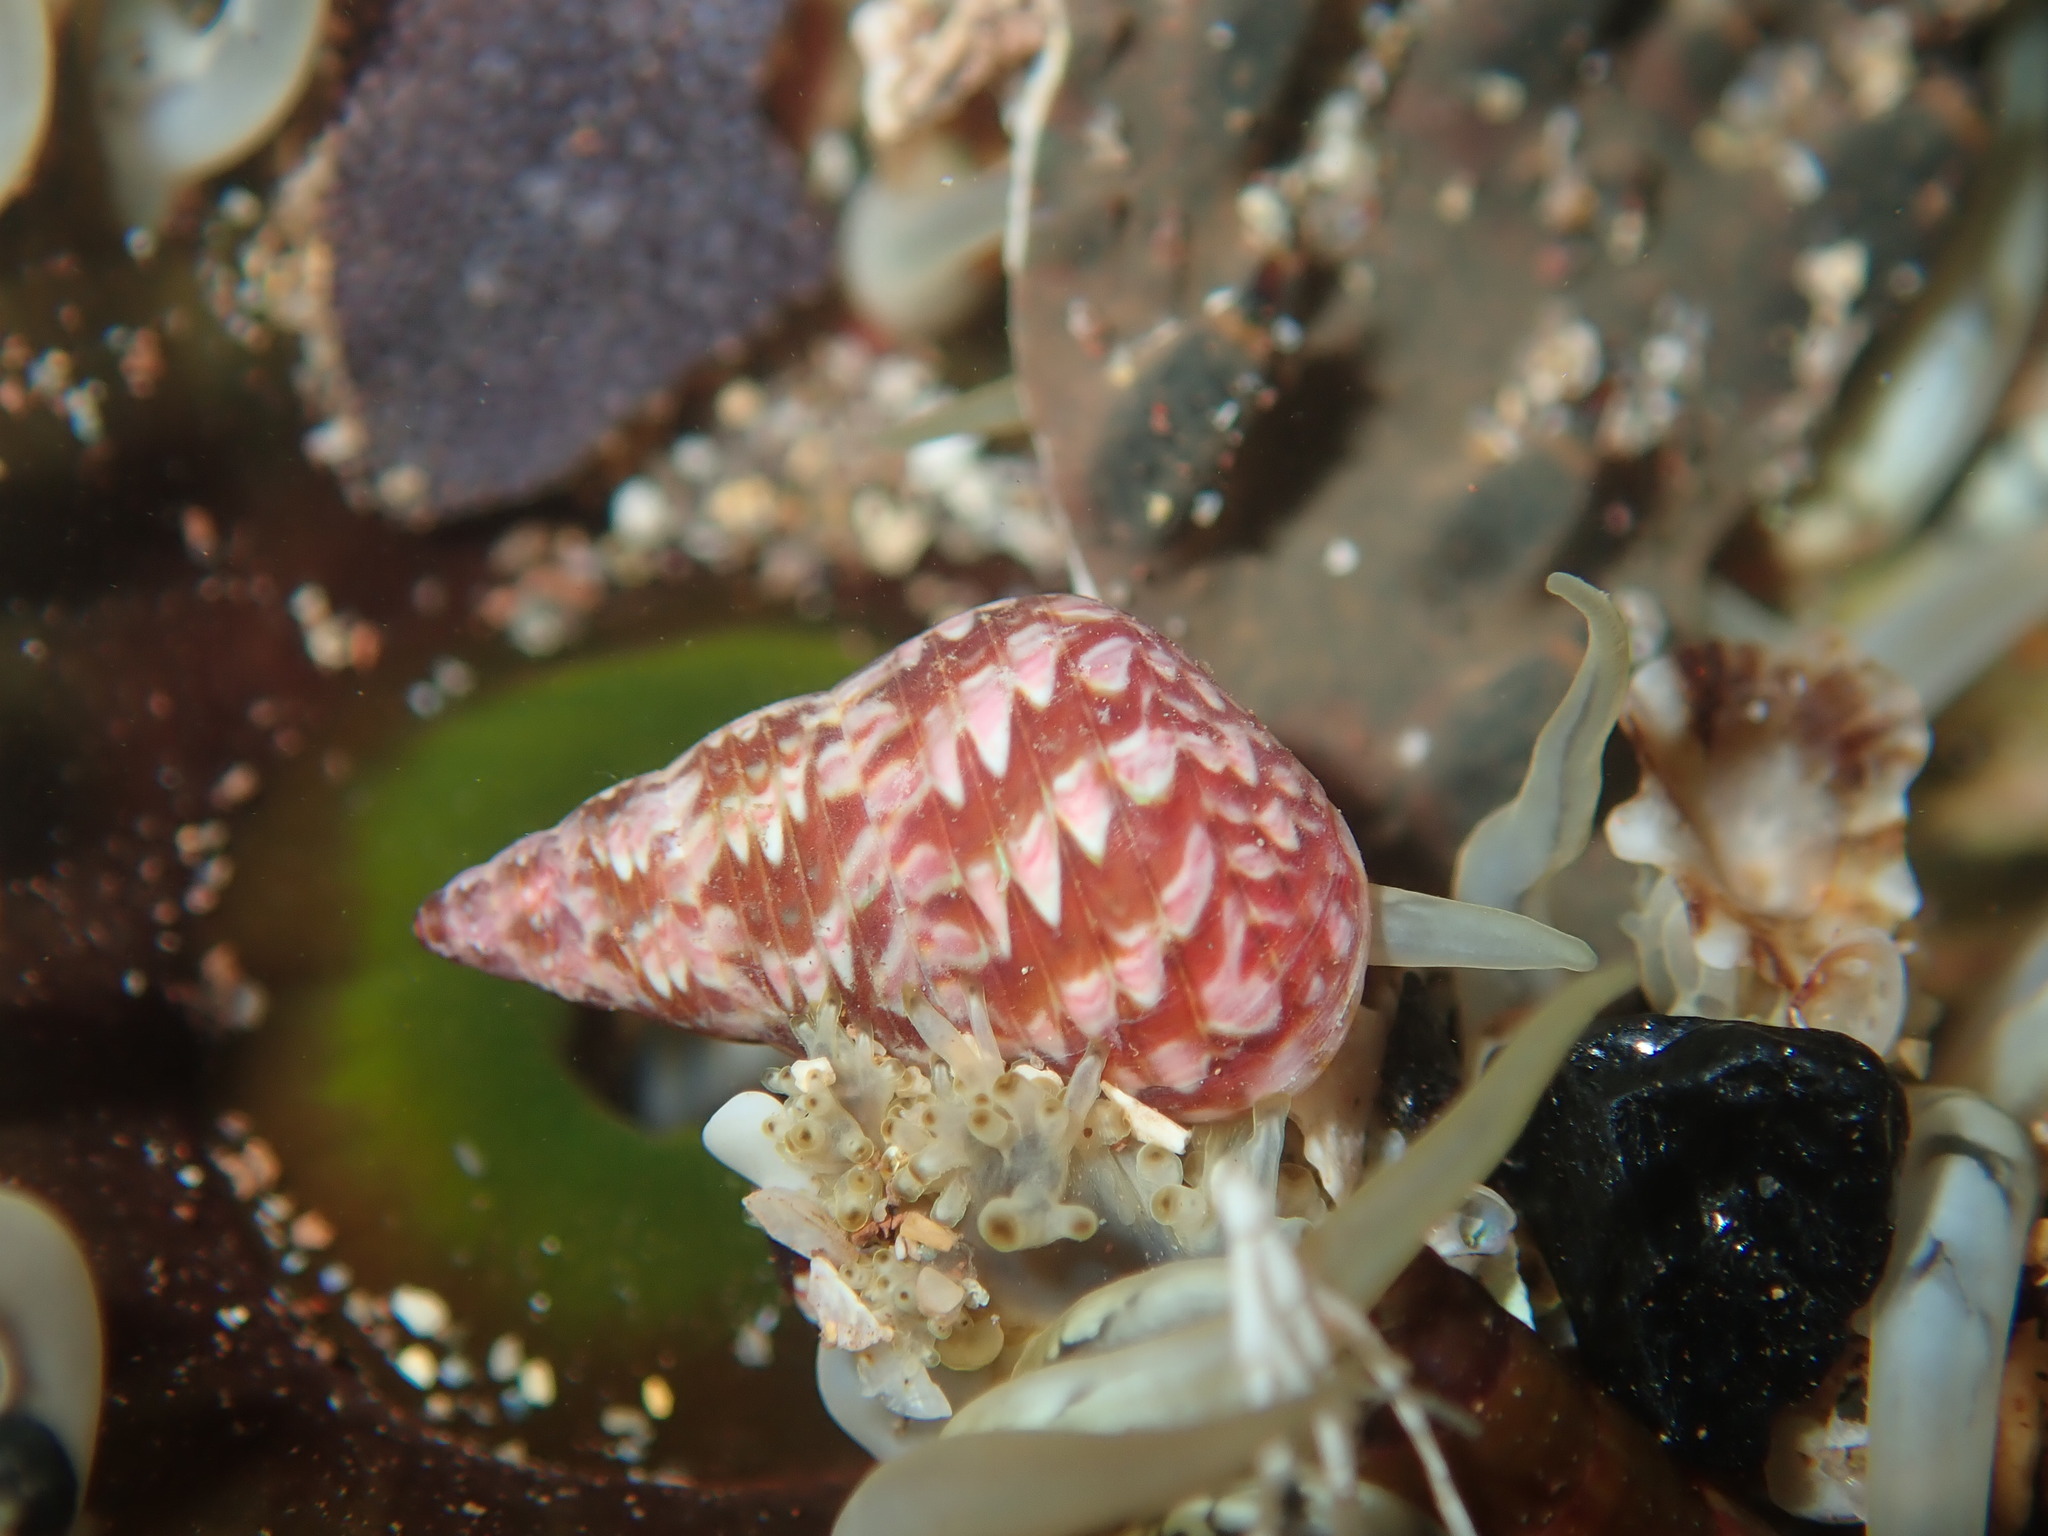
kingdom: Animalia
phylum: Mollusca
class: Gastropoda
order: Trochida
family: Trochidae
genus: Phasianotrochus
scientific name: Phasianotrochus eximius
